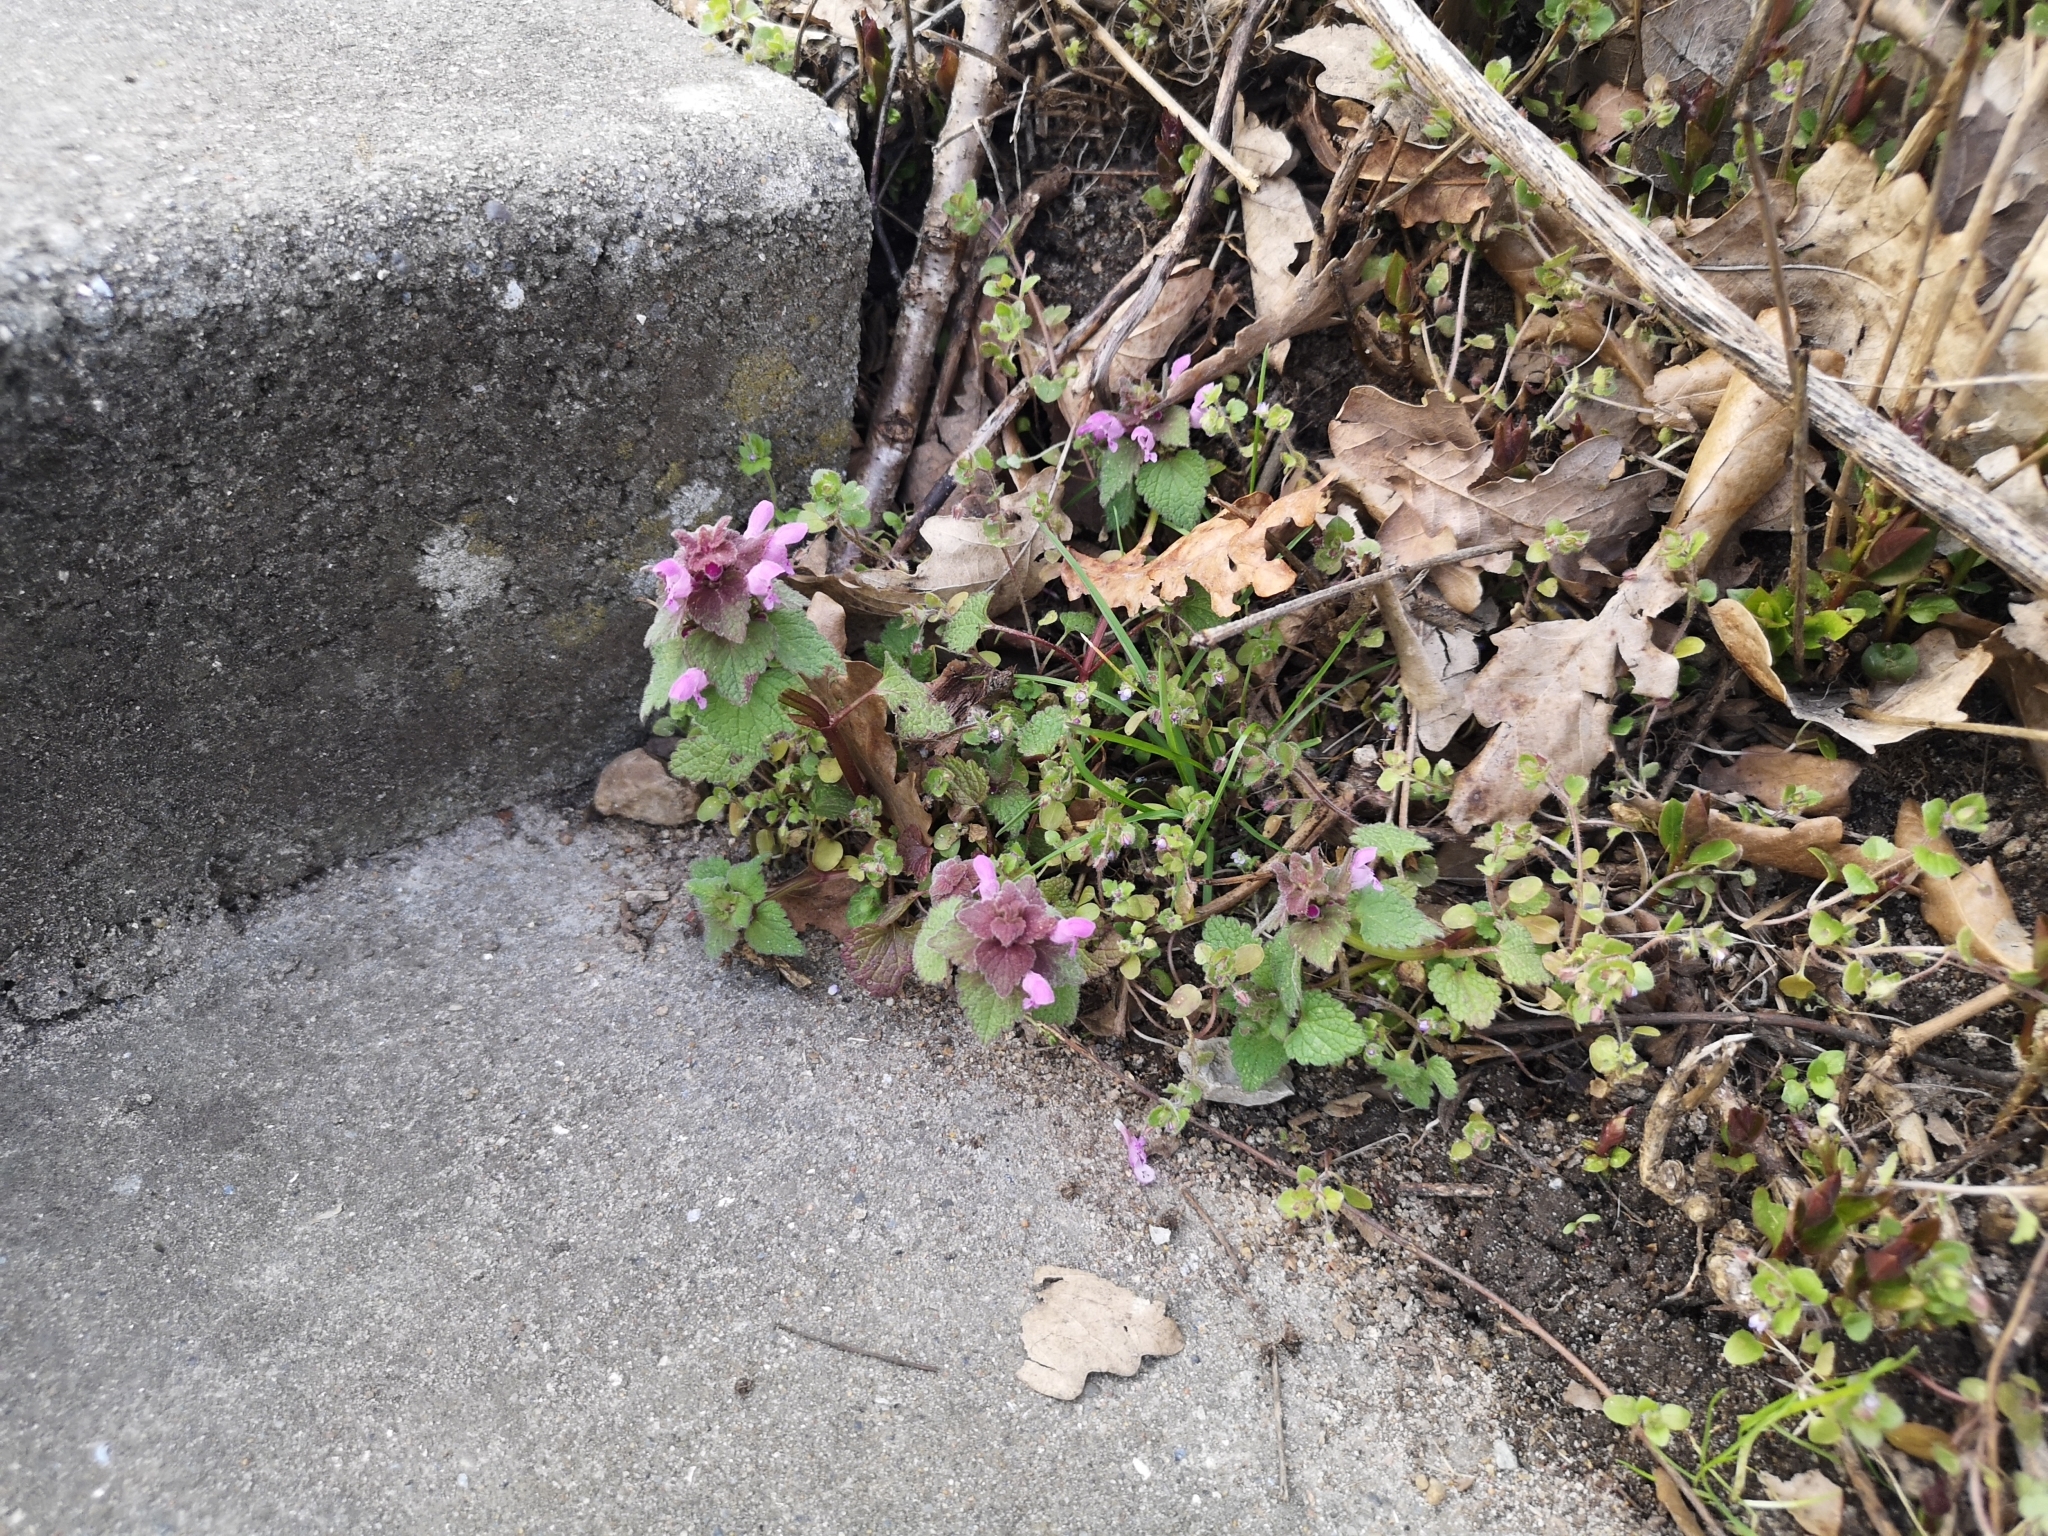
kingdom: Plantae
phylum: Tracheophyta
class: Magnoliopsida
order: Lamiales
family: Lamiaceae
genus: Lamium
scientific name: Lamium purpureum
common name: Red dead-nettle
